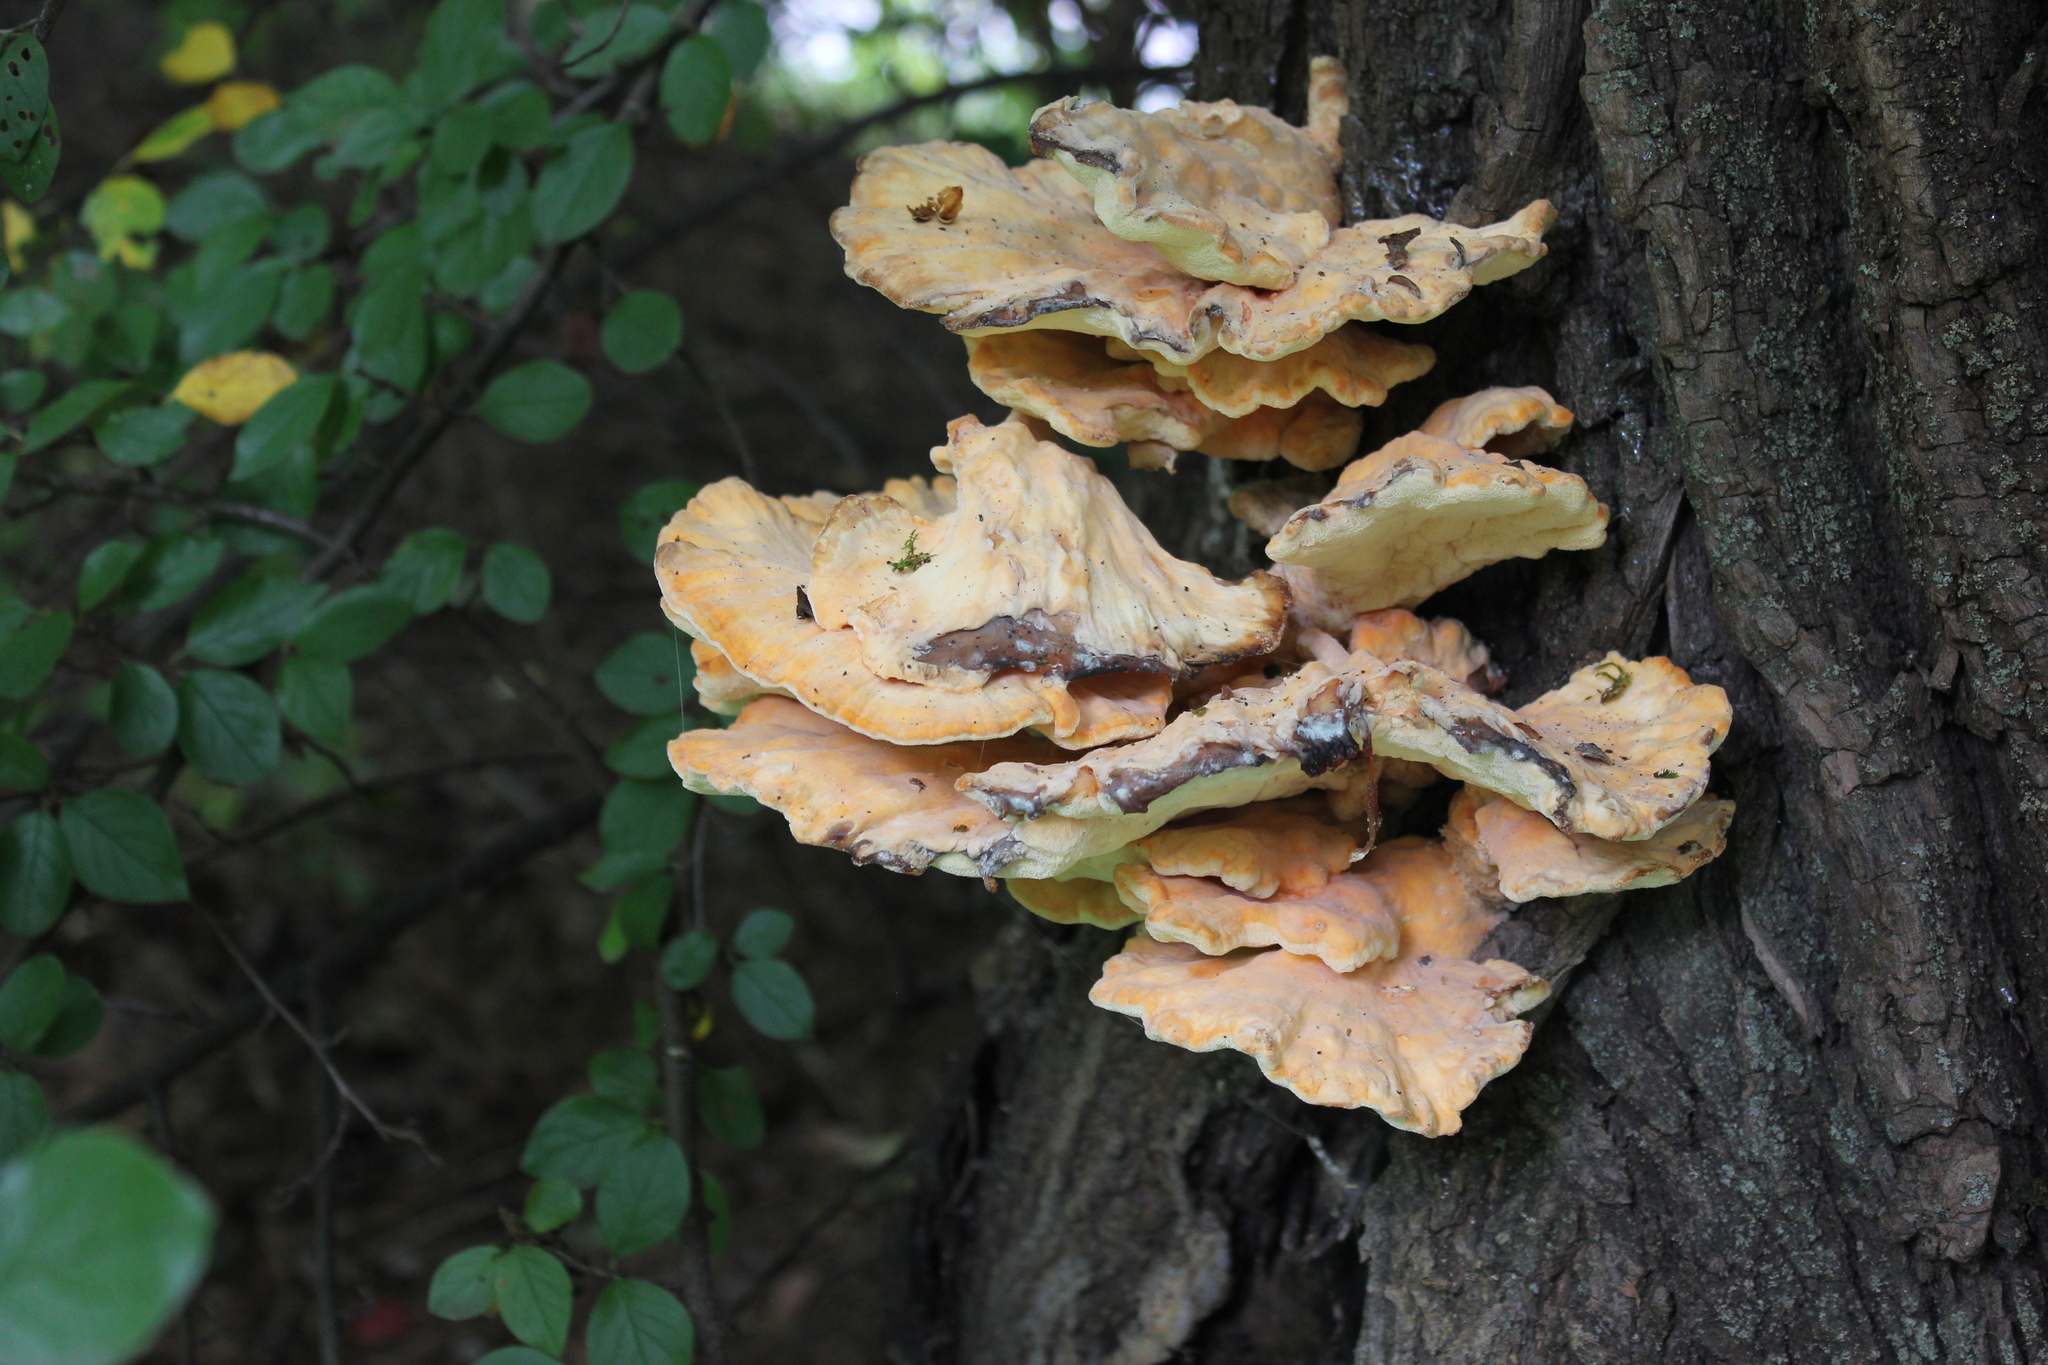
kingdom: Fungi
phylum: Basidiomycota
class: Agaricomycetes
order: Polyporales
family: Laetiporaceae
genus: Laetiporus
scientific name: Laetiporus sulphureus
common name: Chicken of the woods
